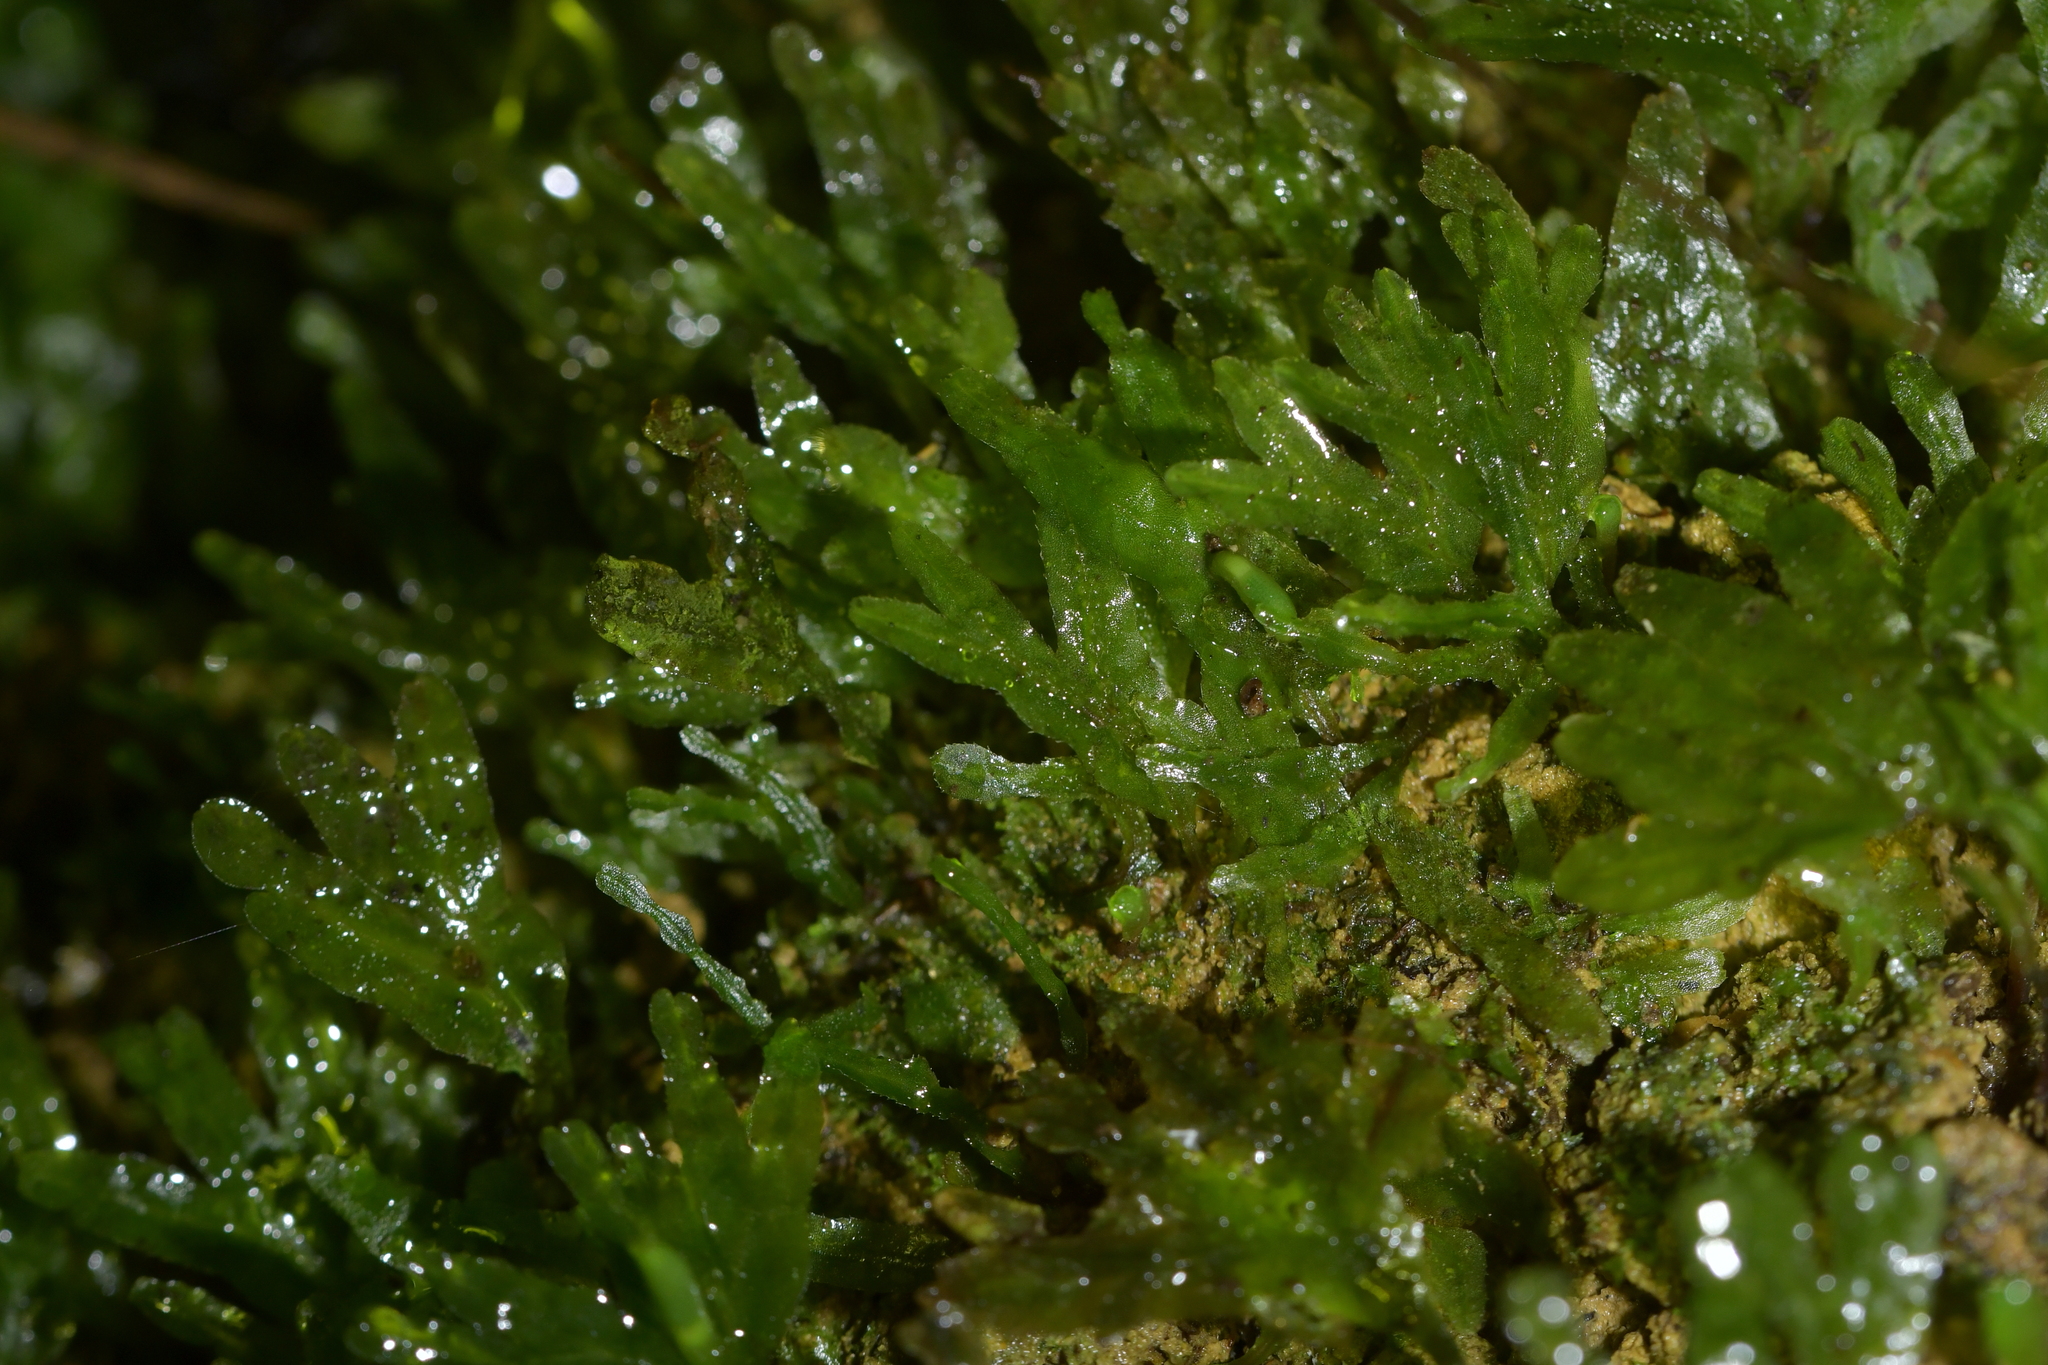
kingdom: Plantae
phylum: Marchantiophyta
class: Jungermanniopsida
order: Pallaviciniales
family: Pallaviciniaceae
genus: Symphyogyna
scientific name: Symphyogyna hymenophyllum
